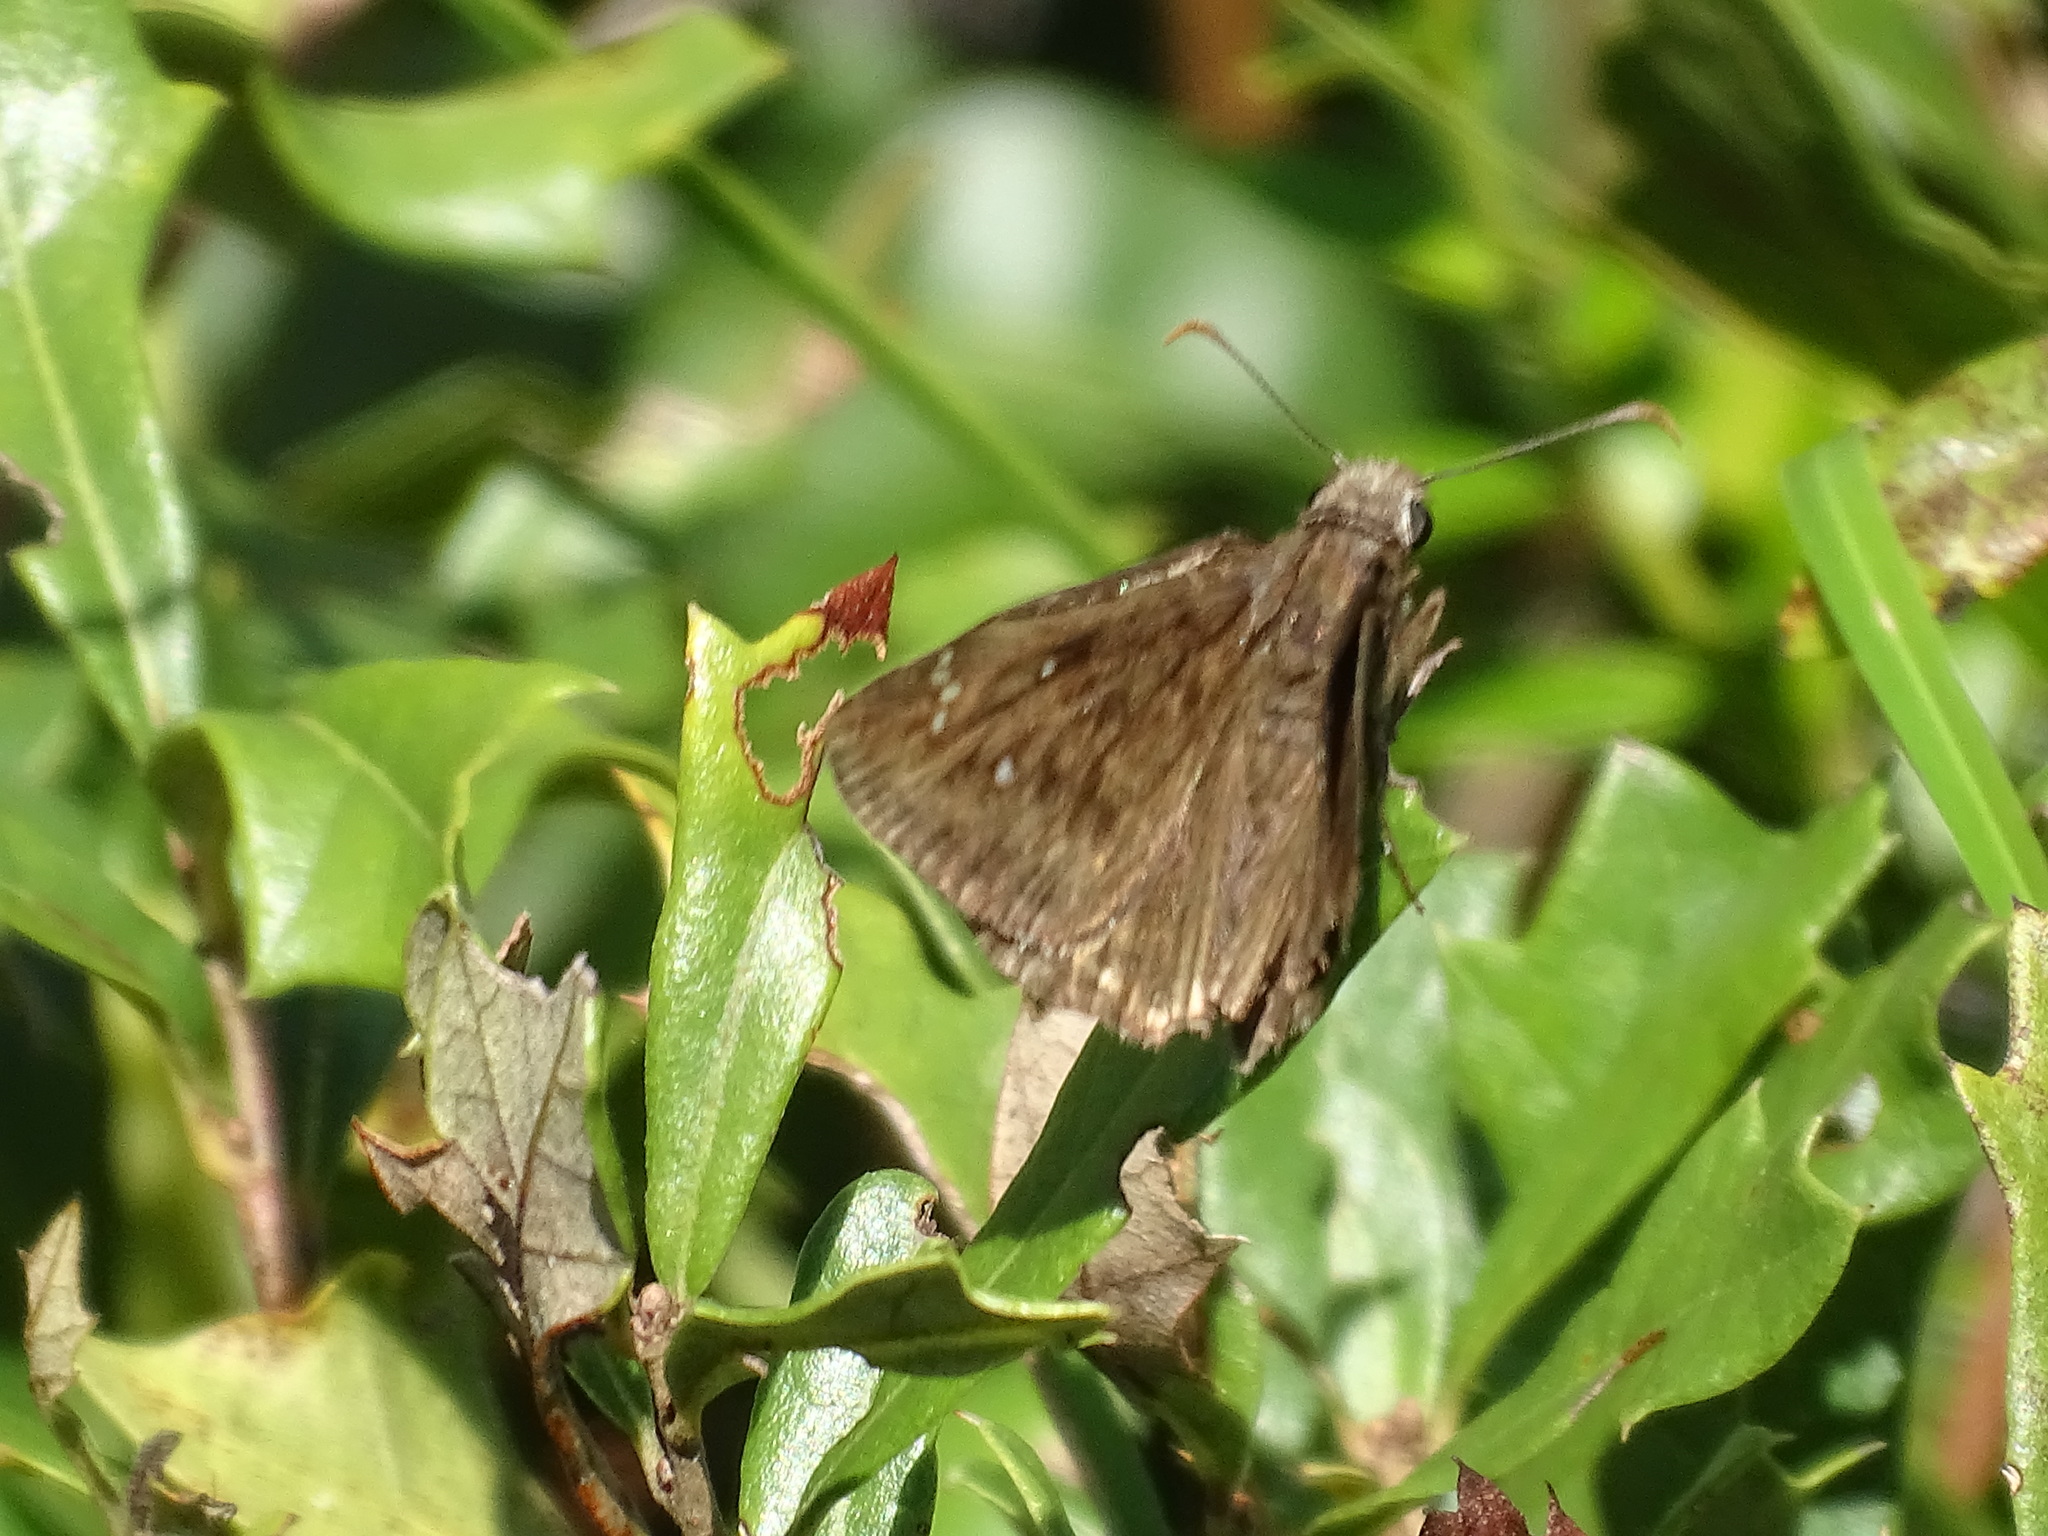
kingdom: Animalia
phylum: Arthropoda
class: Insecta
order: Lepidoptera
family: Hesperiidae
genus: Erynnis
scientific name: Erynnis horatius
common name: Horace's duskywing
